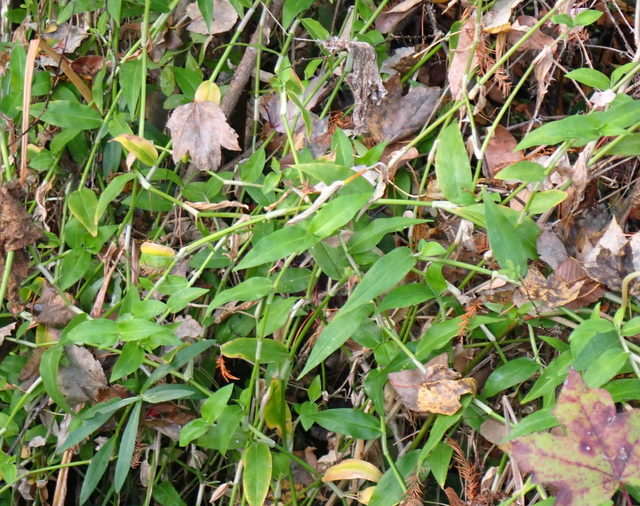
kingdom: Plantae
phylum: Tracheophyta
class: Liliopsida
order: Commelinales
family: Commelinaceae
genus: Commelina
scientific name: Commelina diffusa
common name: Climbing dayflower
